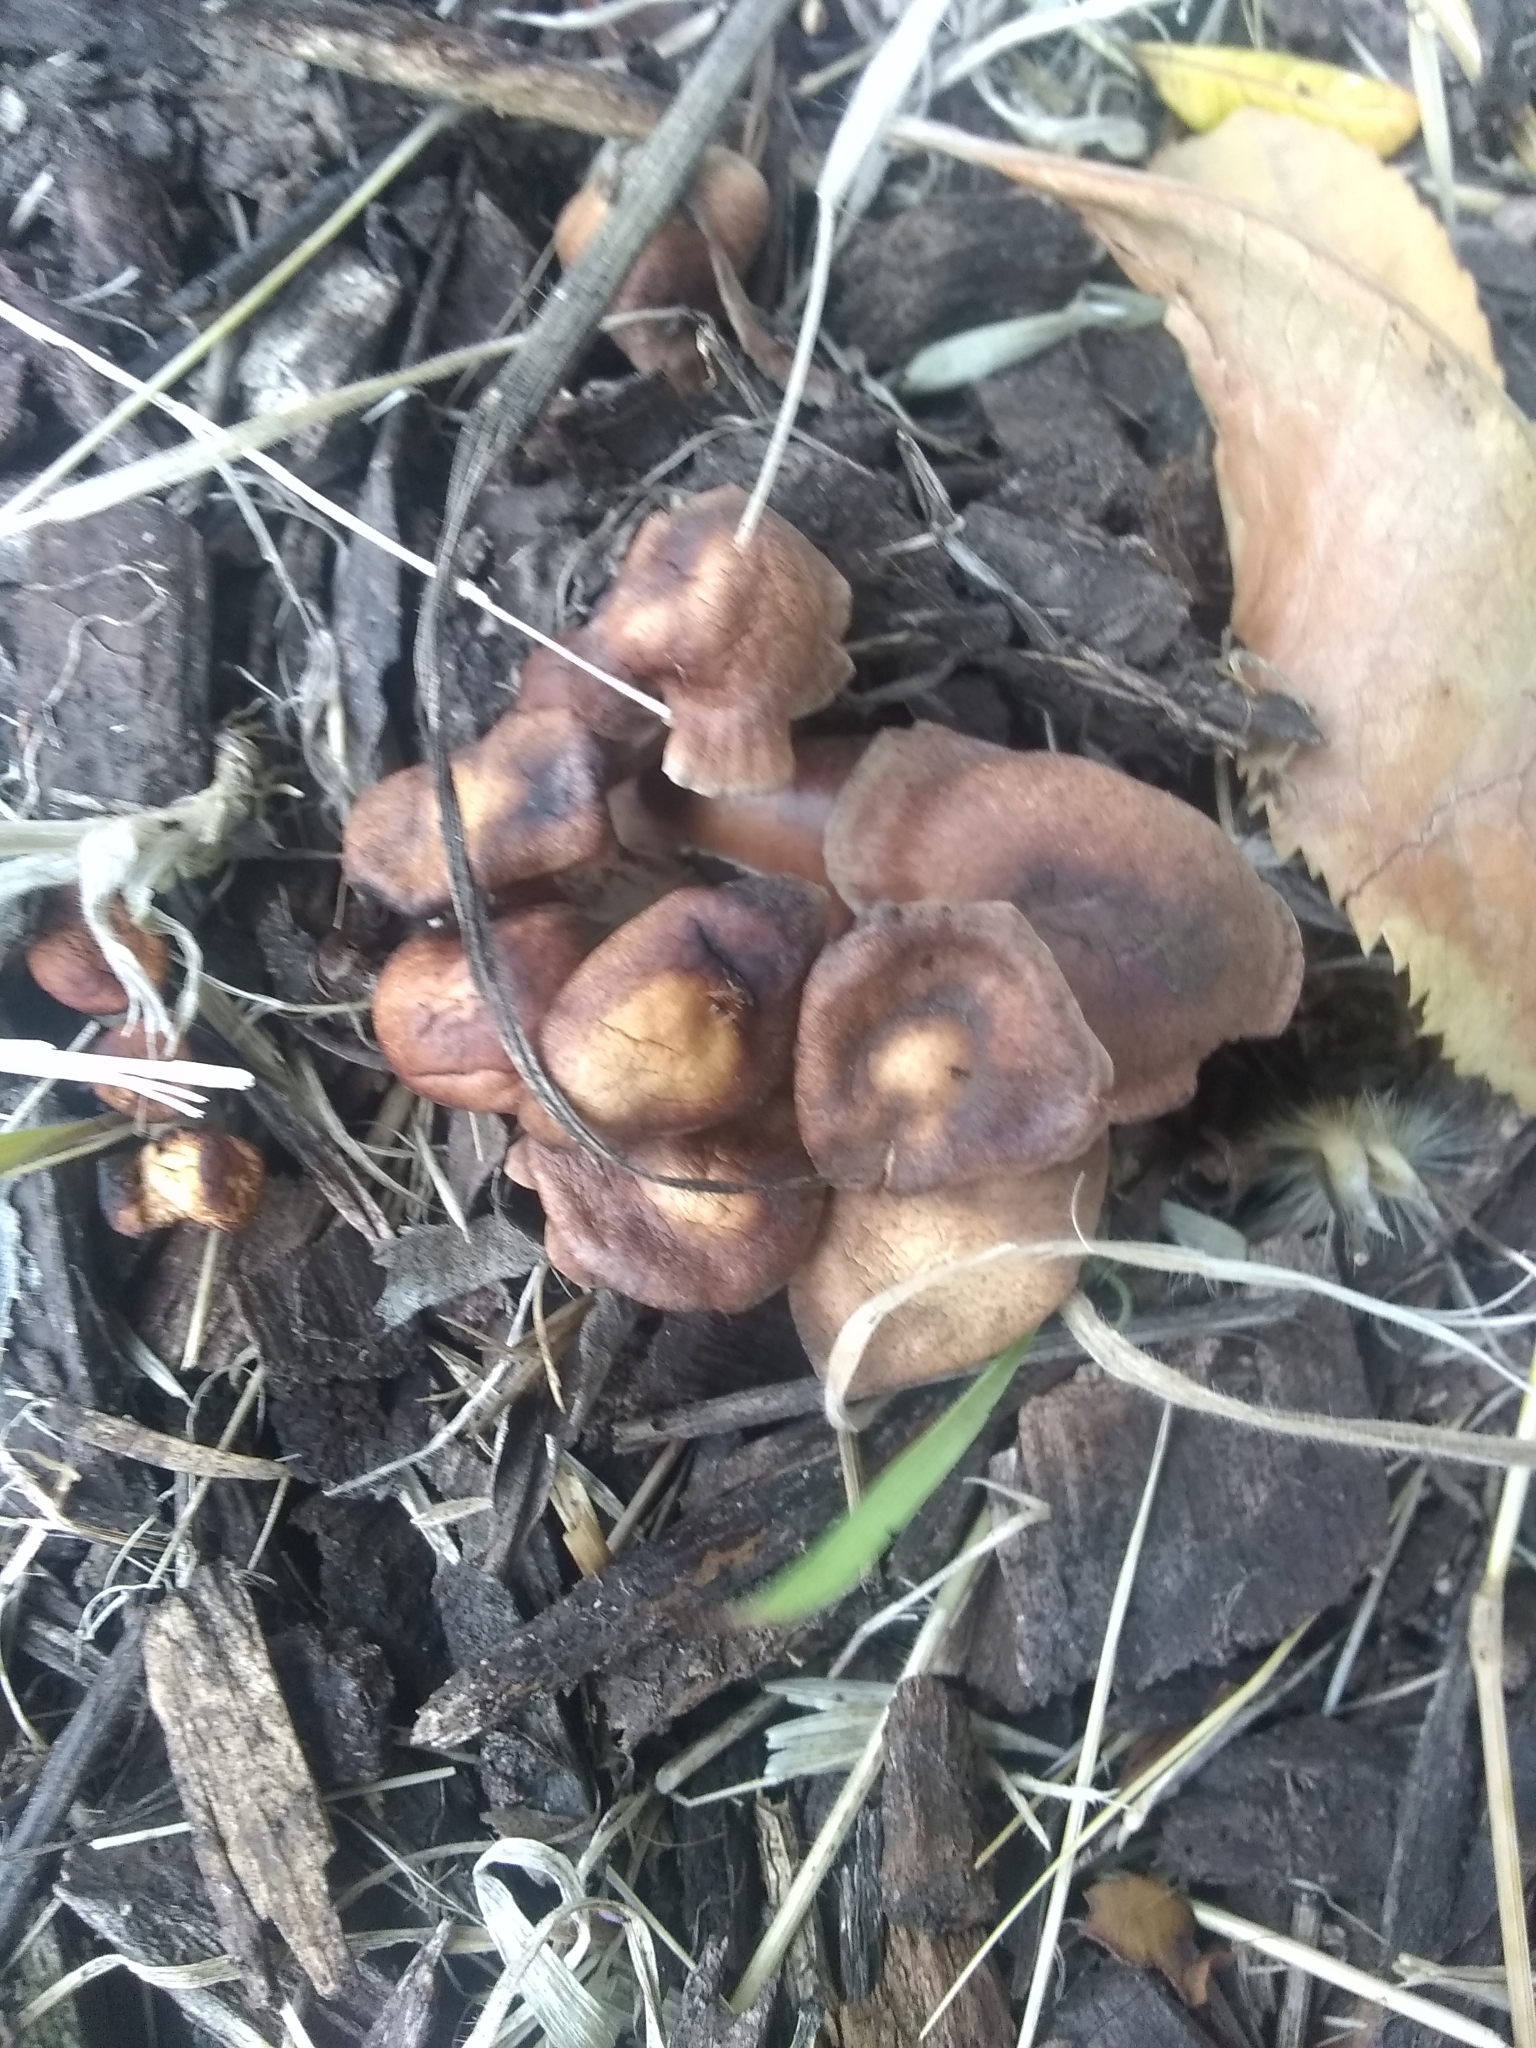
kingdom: Fungi
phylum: Basidiomycota
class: Agaricomycetes
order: Agaricales
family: Omphalotaceae
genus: Collybiopsis
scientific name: Collybiopsis luxurians
